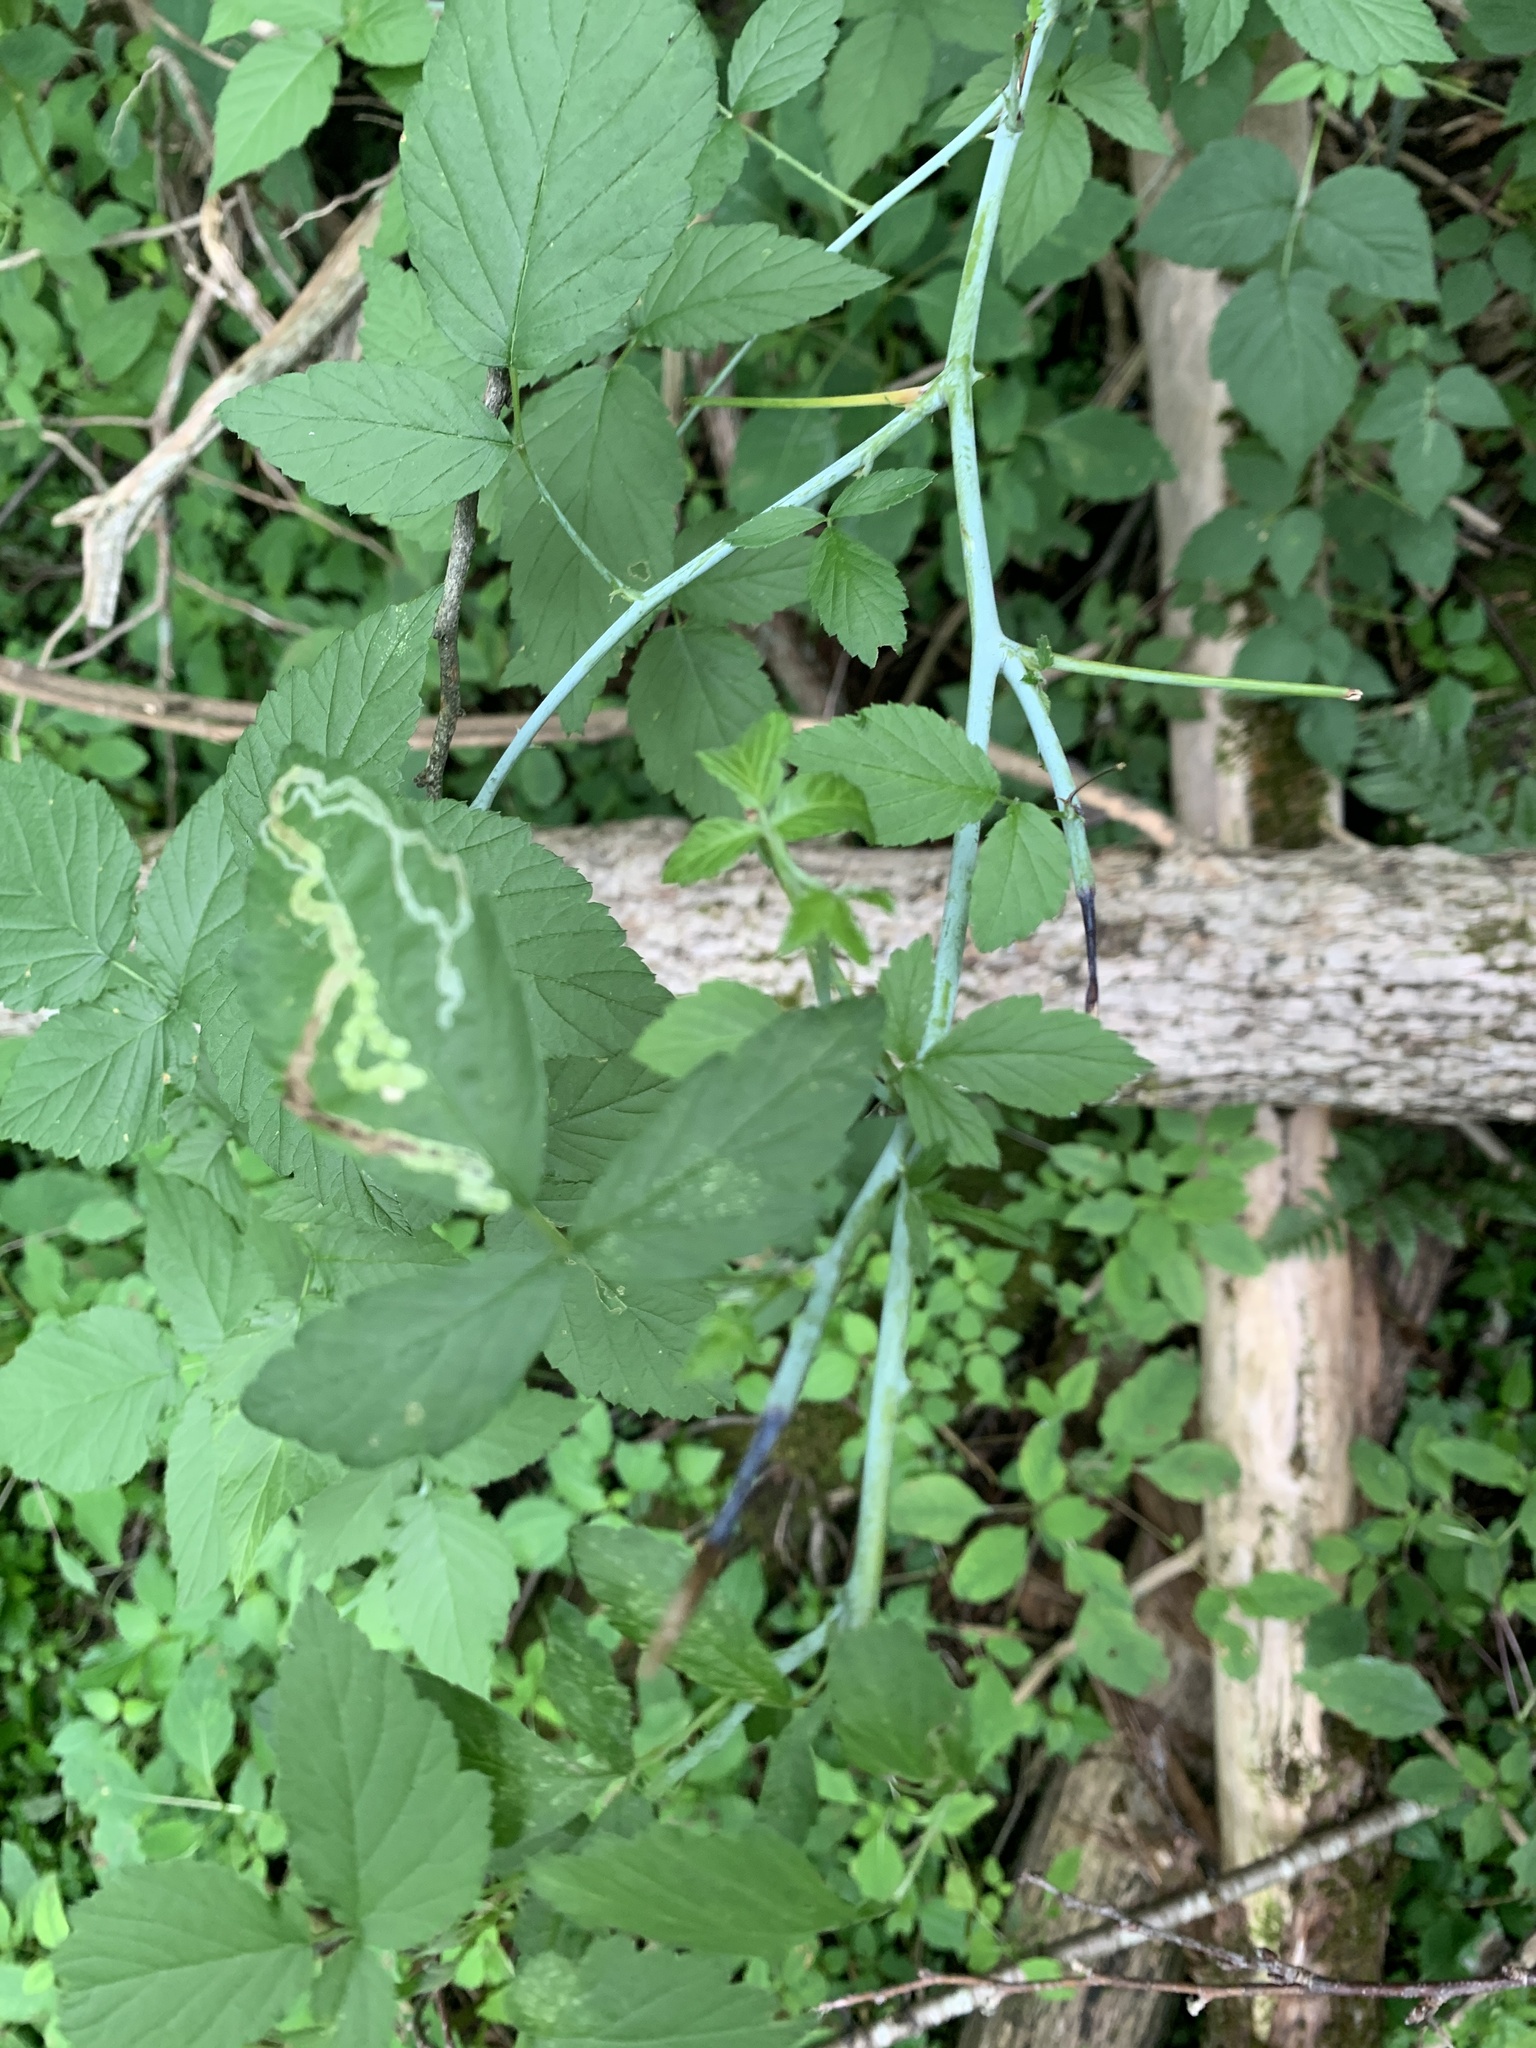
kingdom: Plantae
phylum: Tracheophyta
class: Magnoliopsida
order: Rosales
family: Rosaceae
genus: Rubus
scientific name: Rubus occidentalis
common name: Black raspberry
